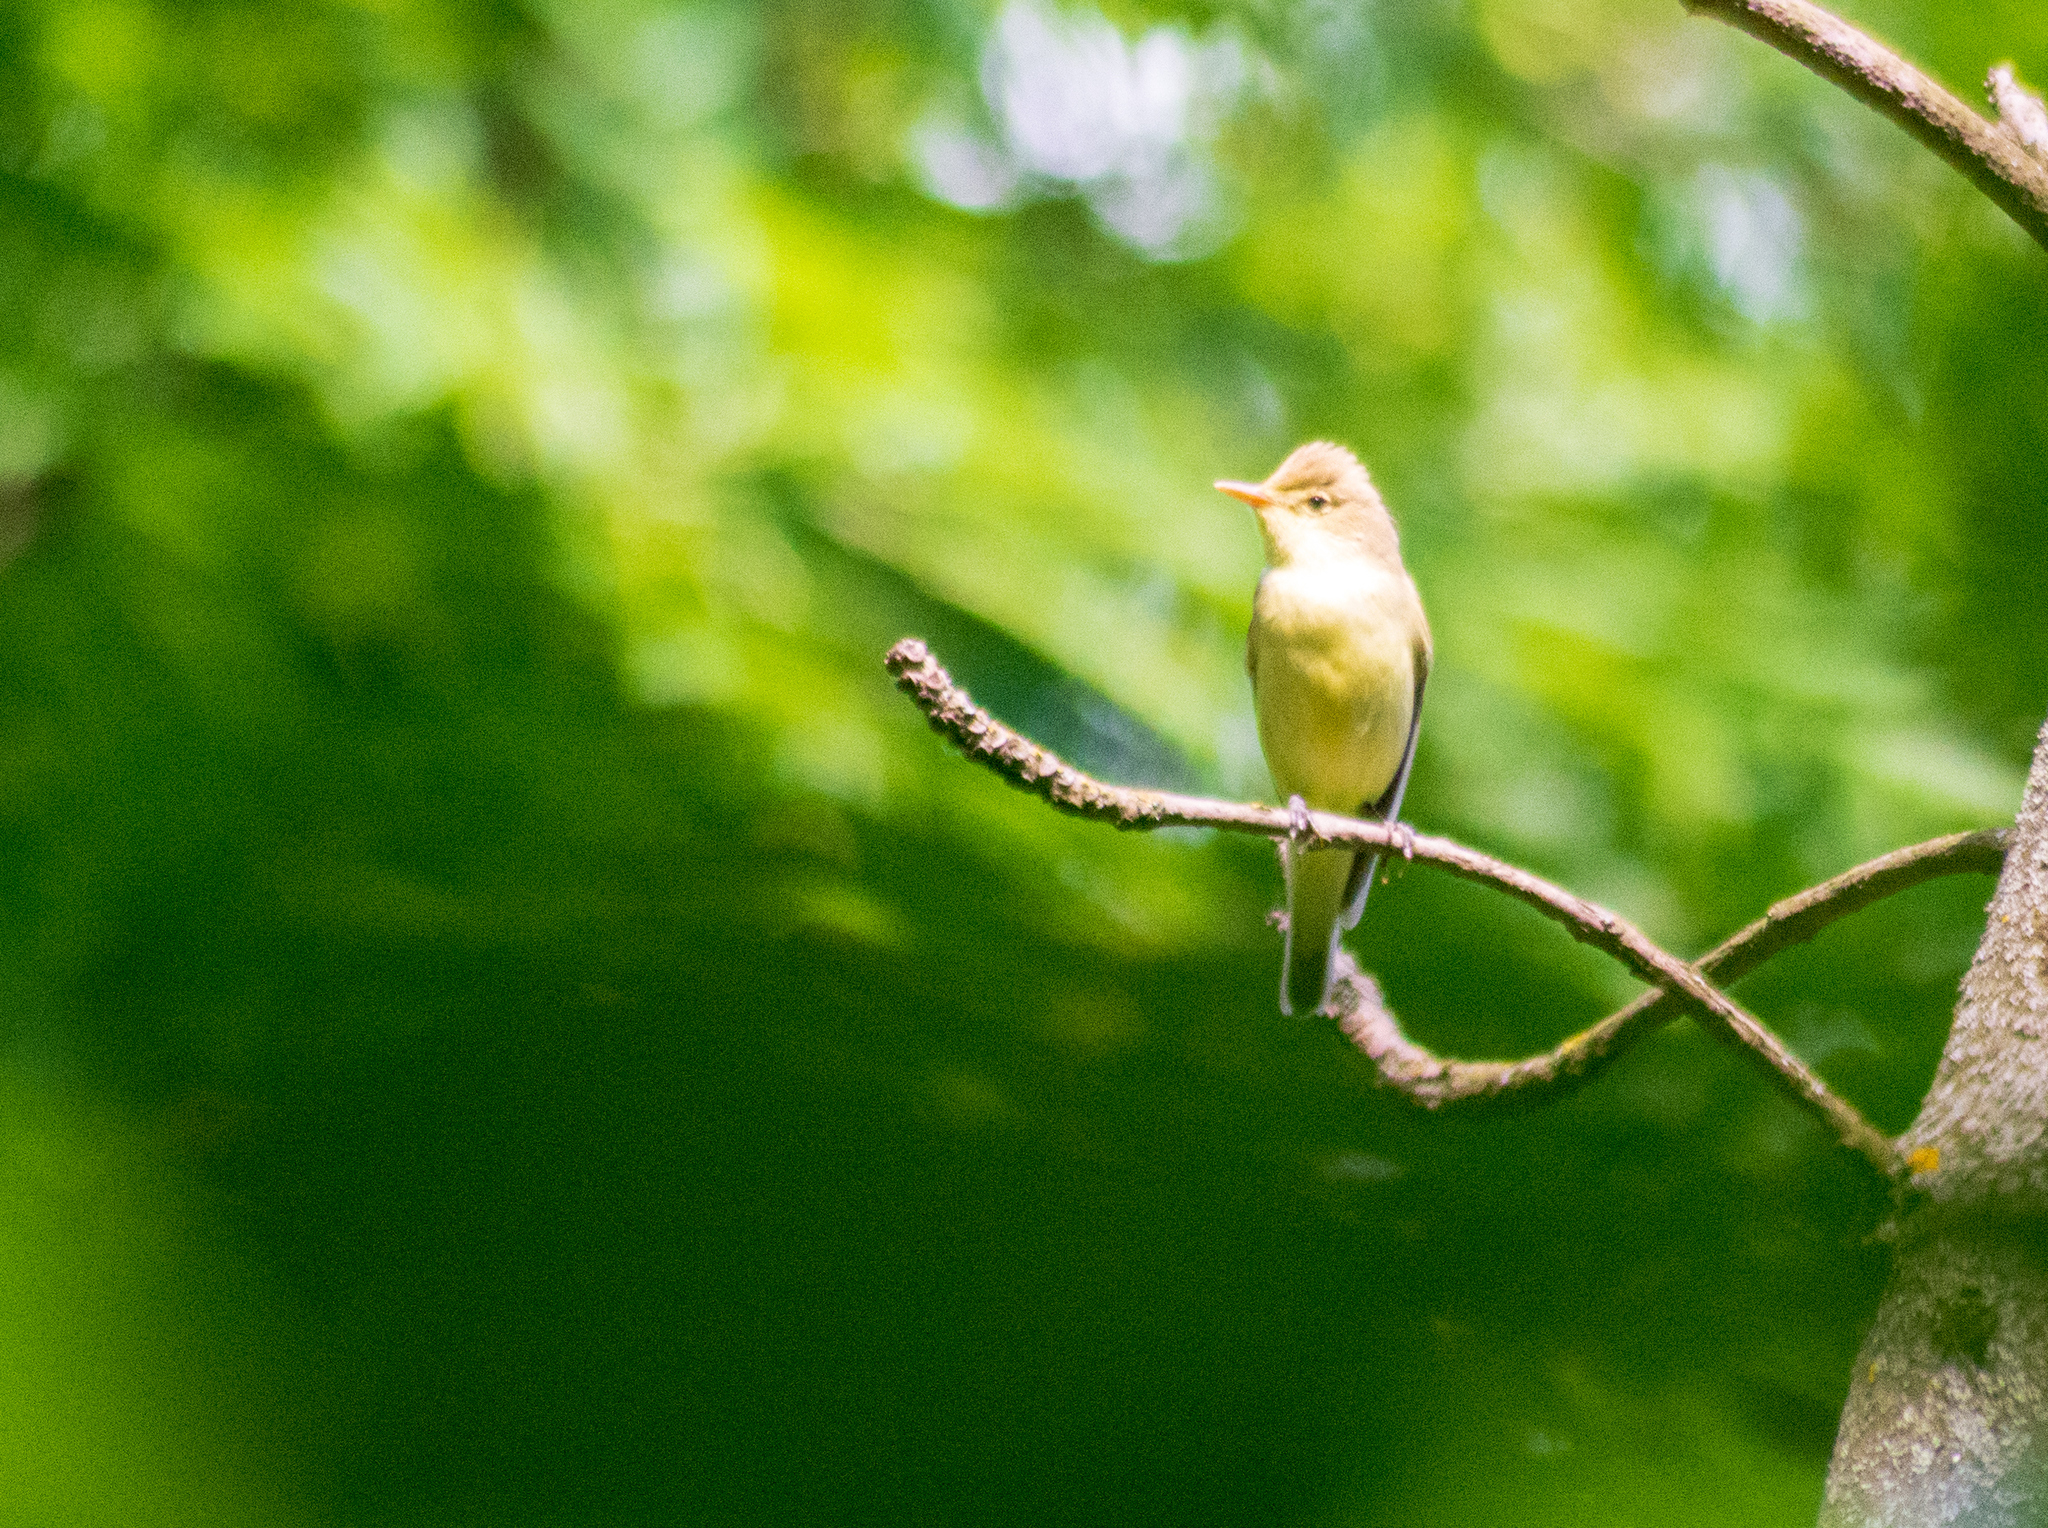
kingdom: Animalia
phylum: Chordata
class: Aves
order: Passeriformes
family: Acrocephalidae
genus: Hippolais
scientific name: Hippolais icterina
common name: Icterine warbler
